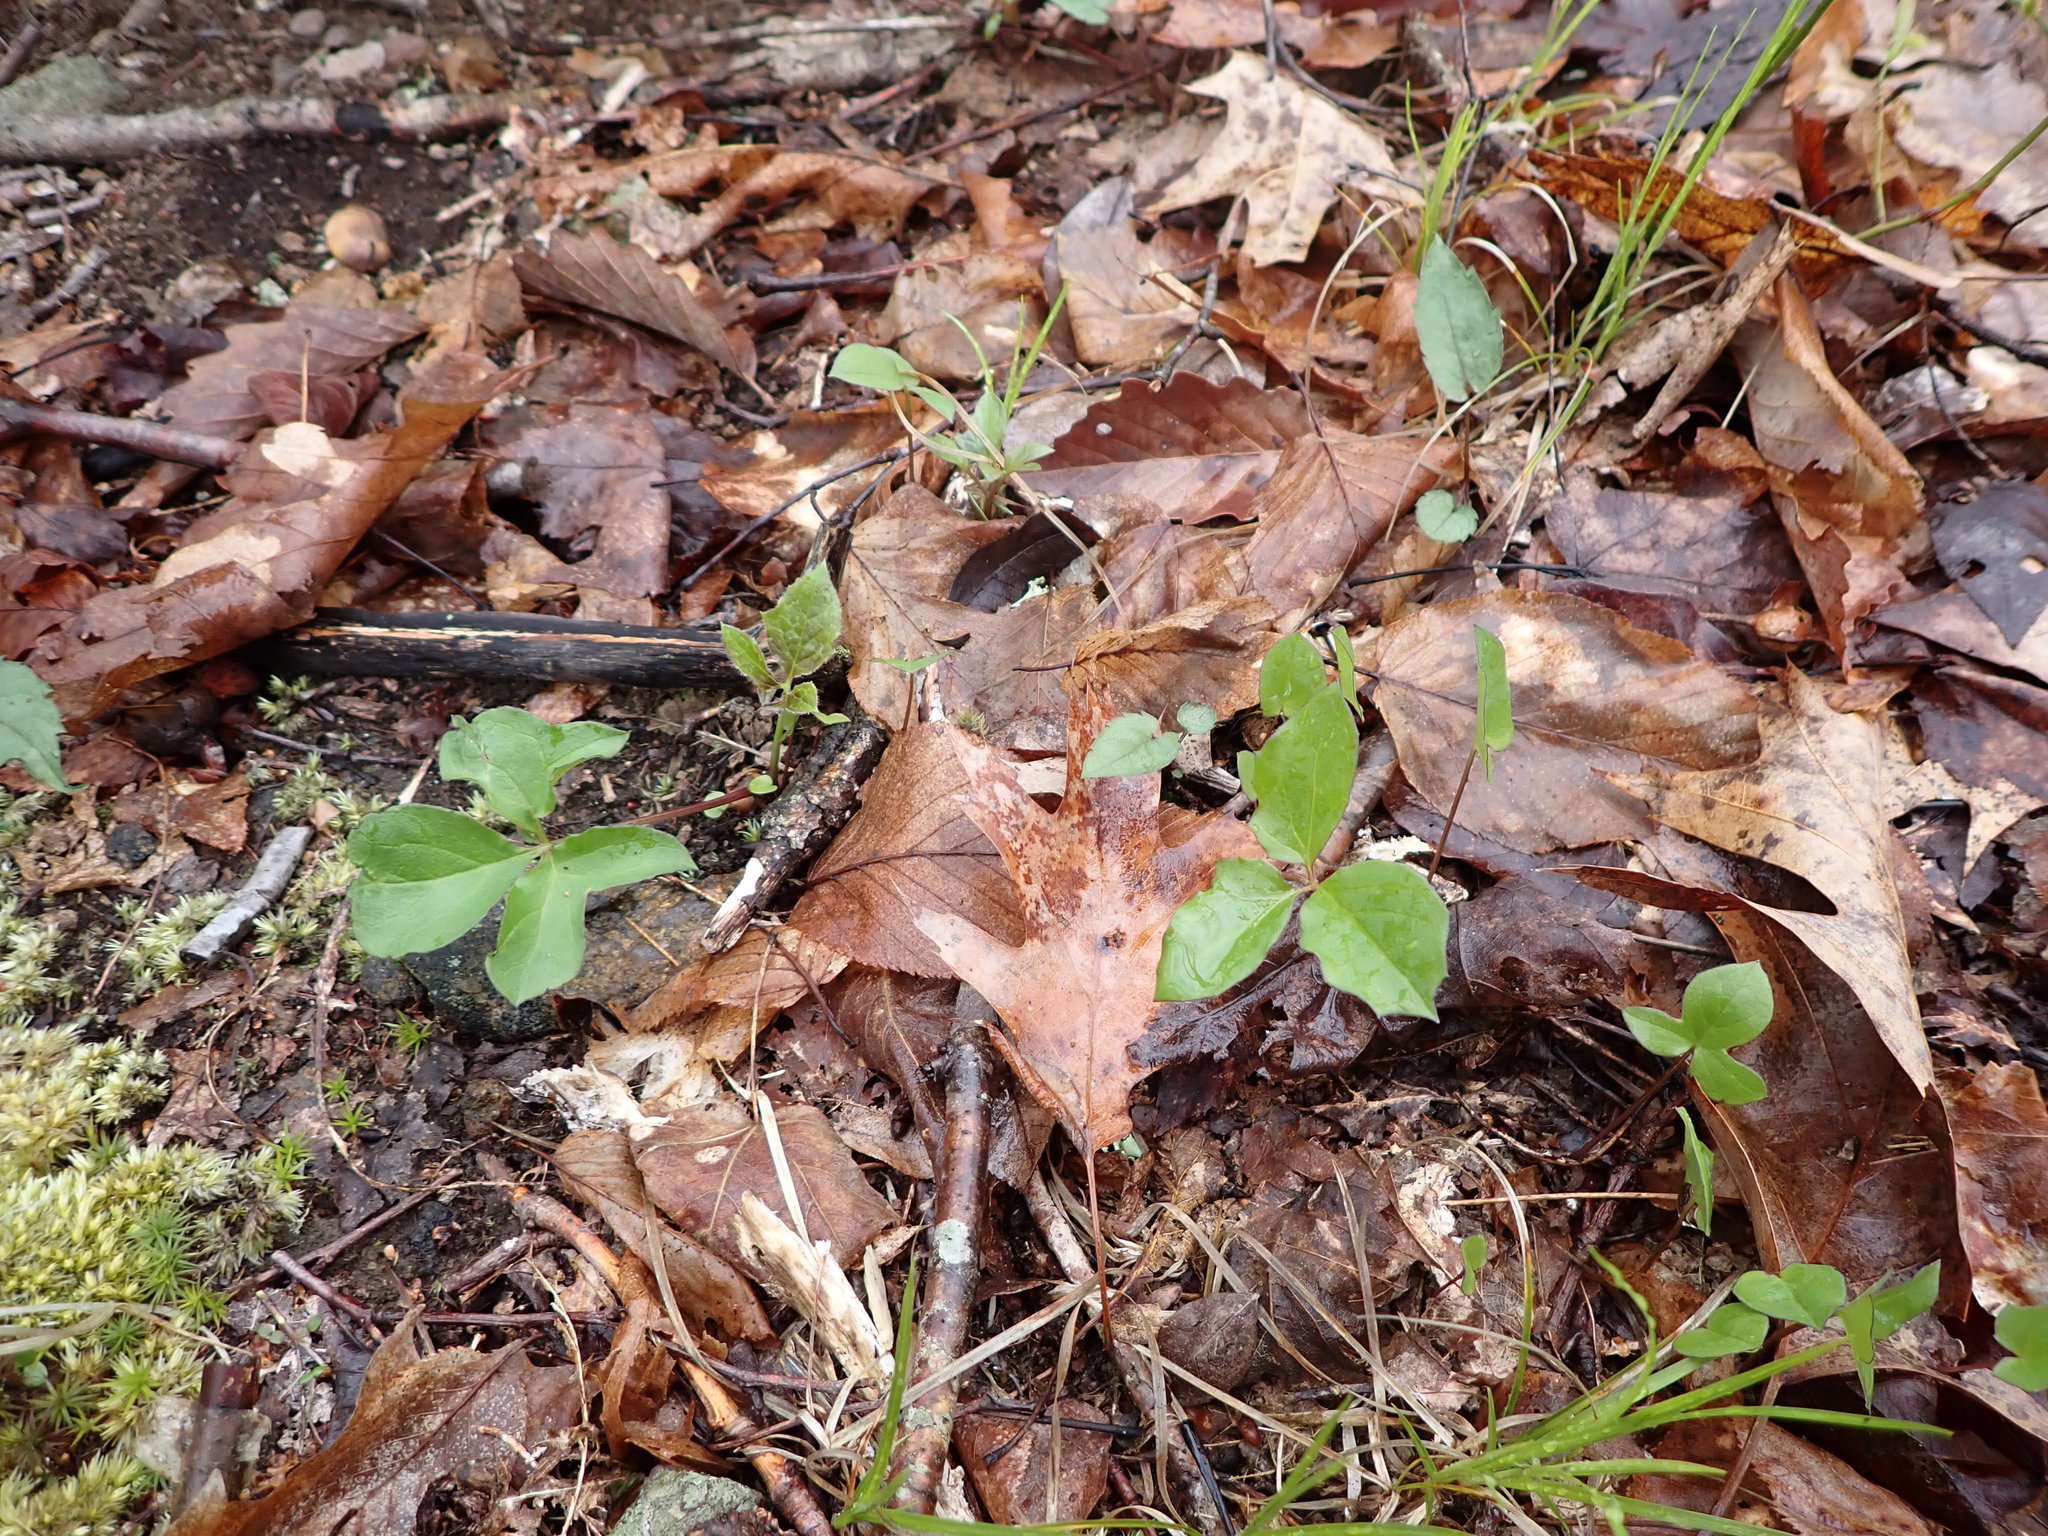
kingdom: Plantae
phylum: Tracheophyta
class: Magnoliopsida
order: Asterales
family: Asteraceae
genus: Nabalus
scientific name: Nabalus
